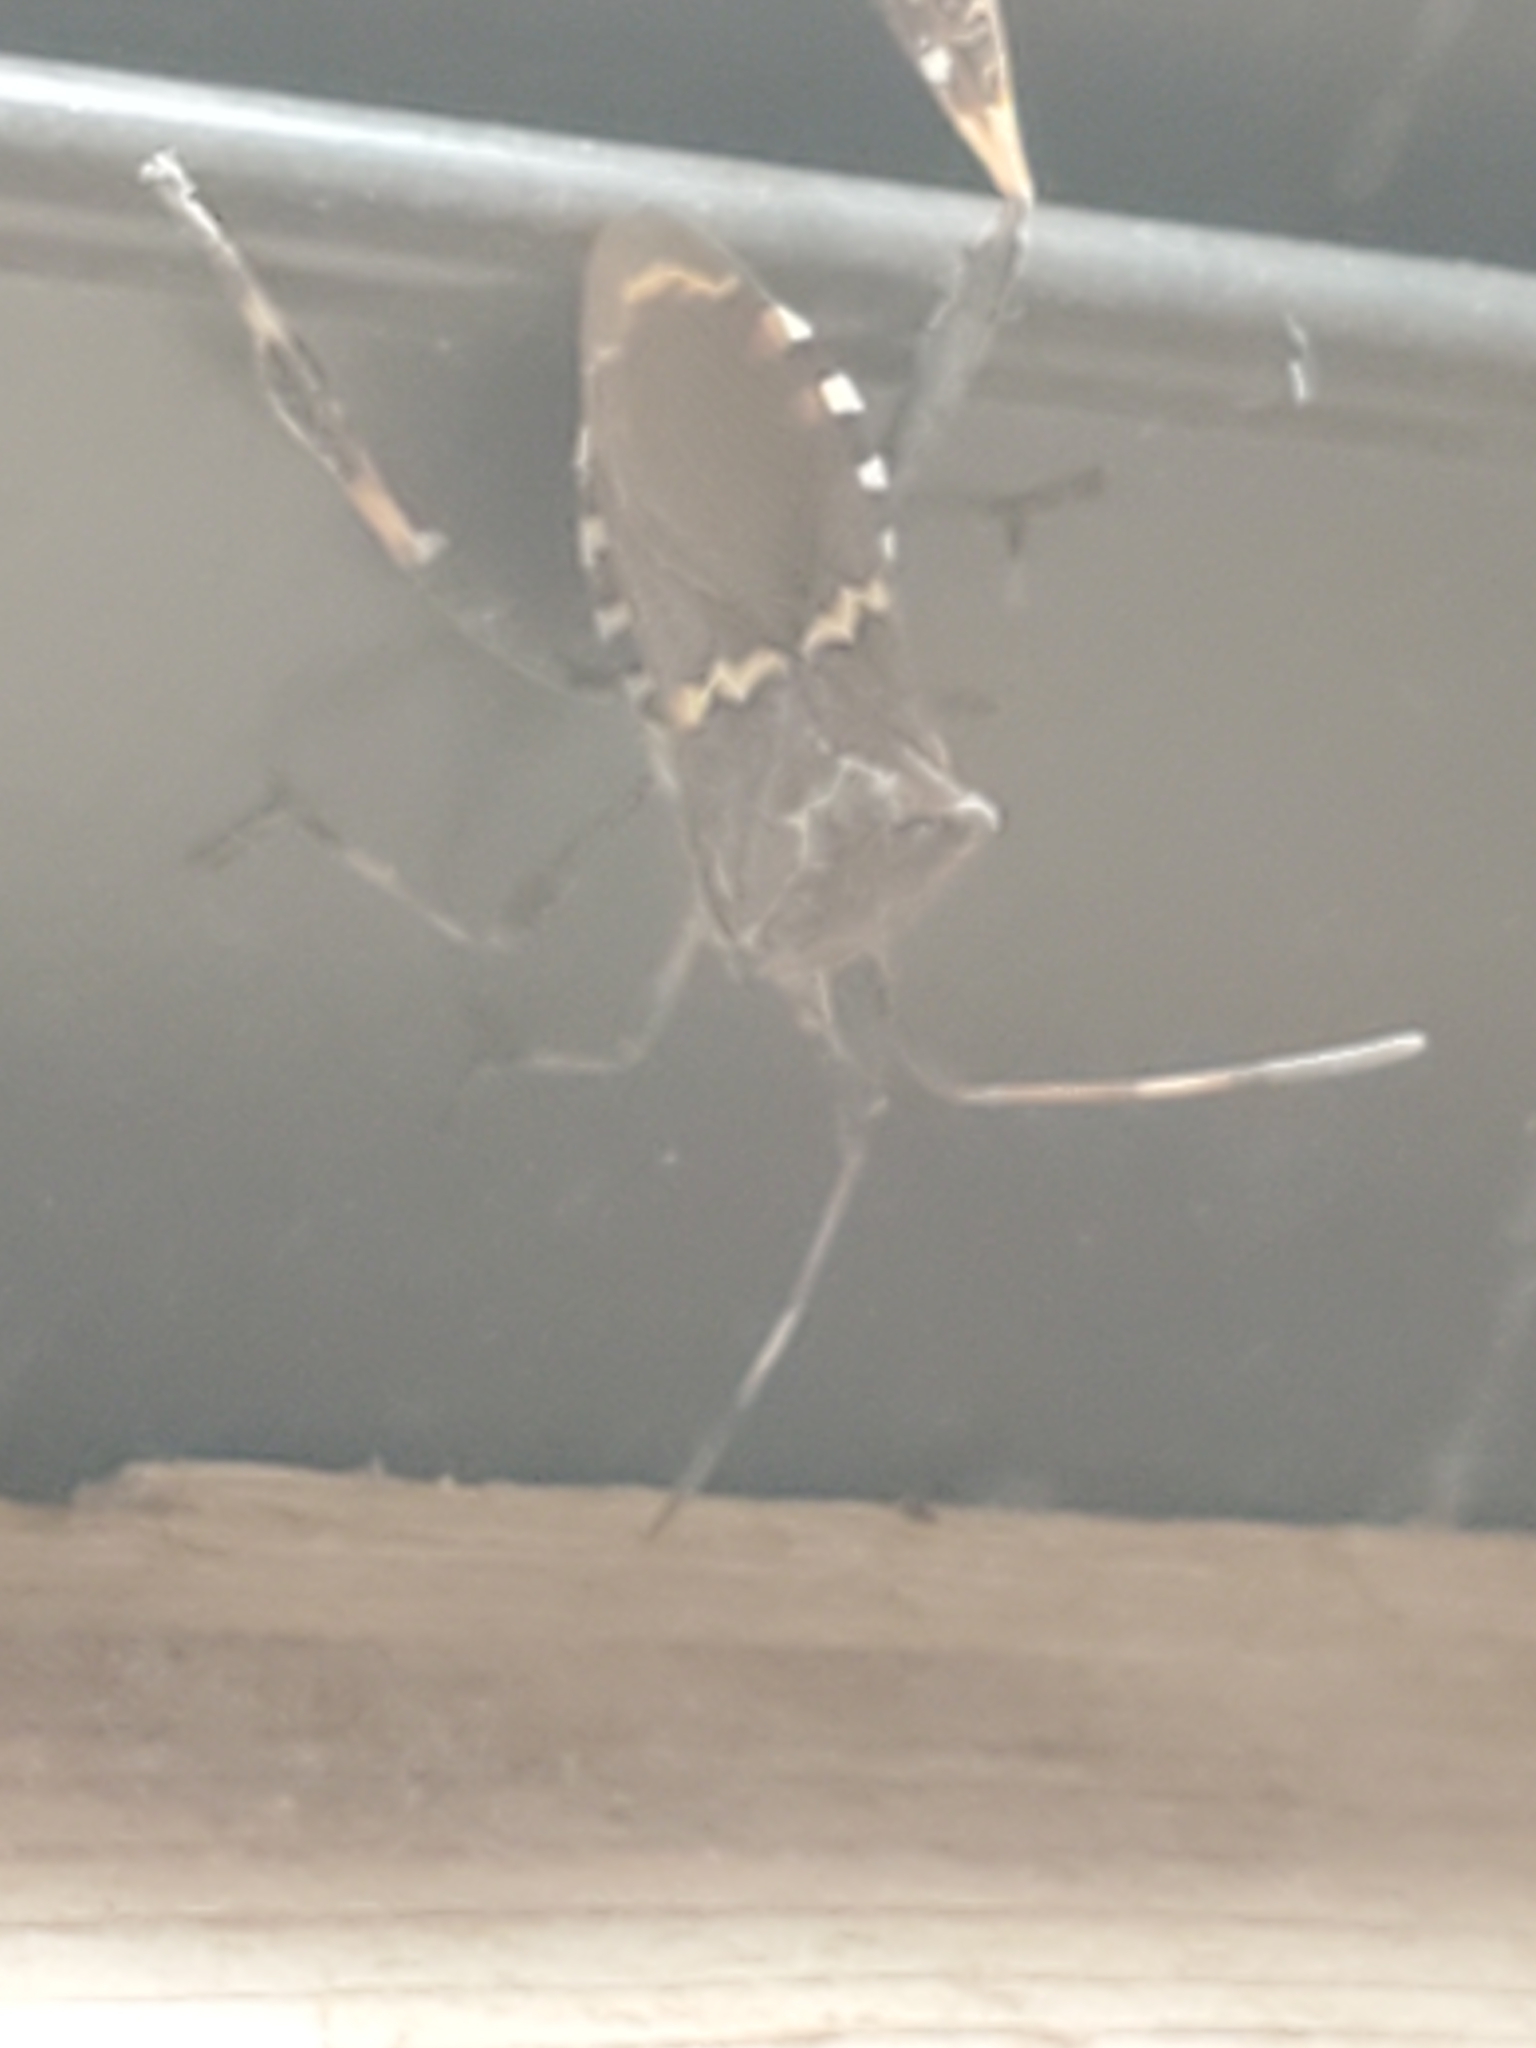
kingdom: Animalia
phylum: Arthropoda
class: Insecta
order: Hemiptera
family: Coreidae
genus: Leptoglossus
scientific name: Leptoglossus clypealis
